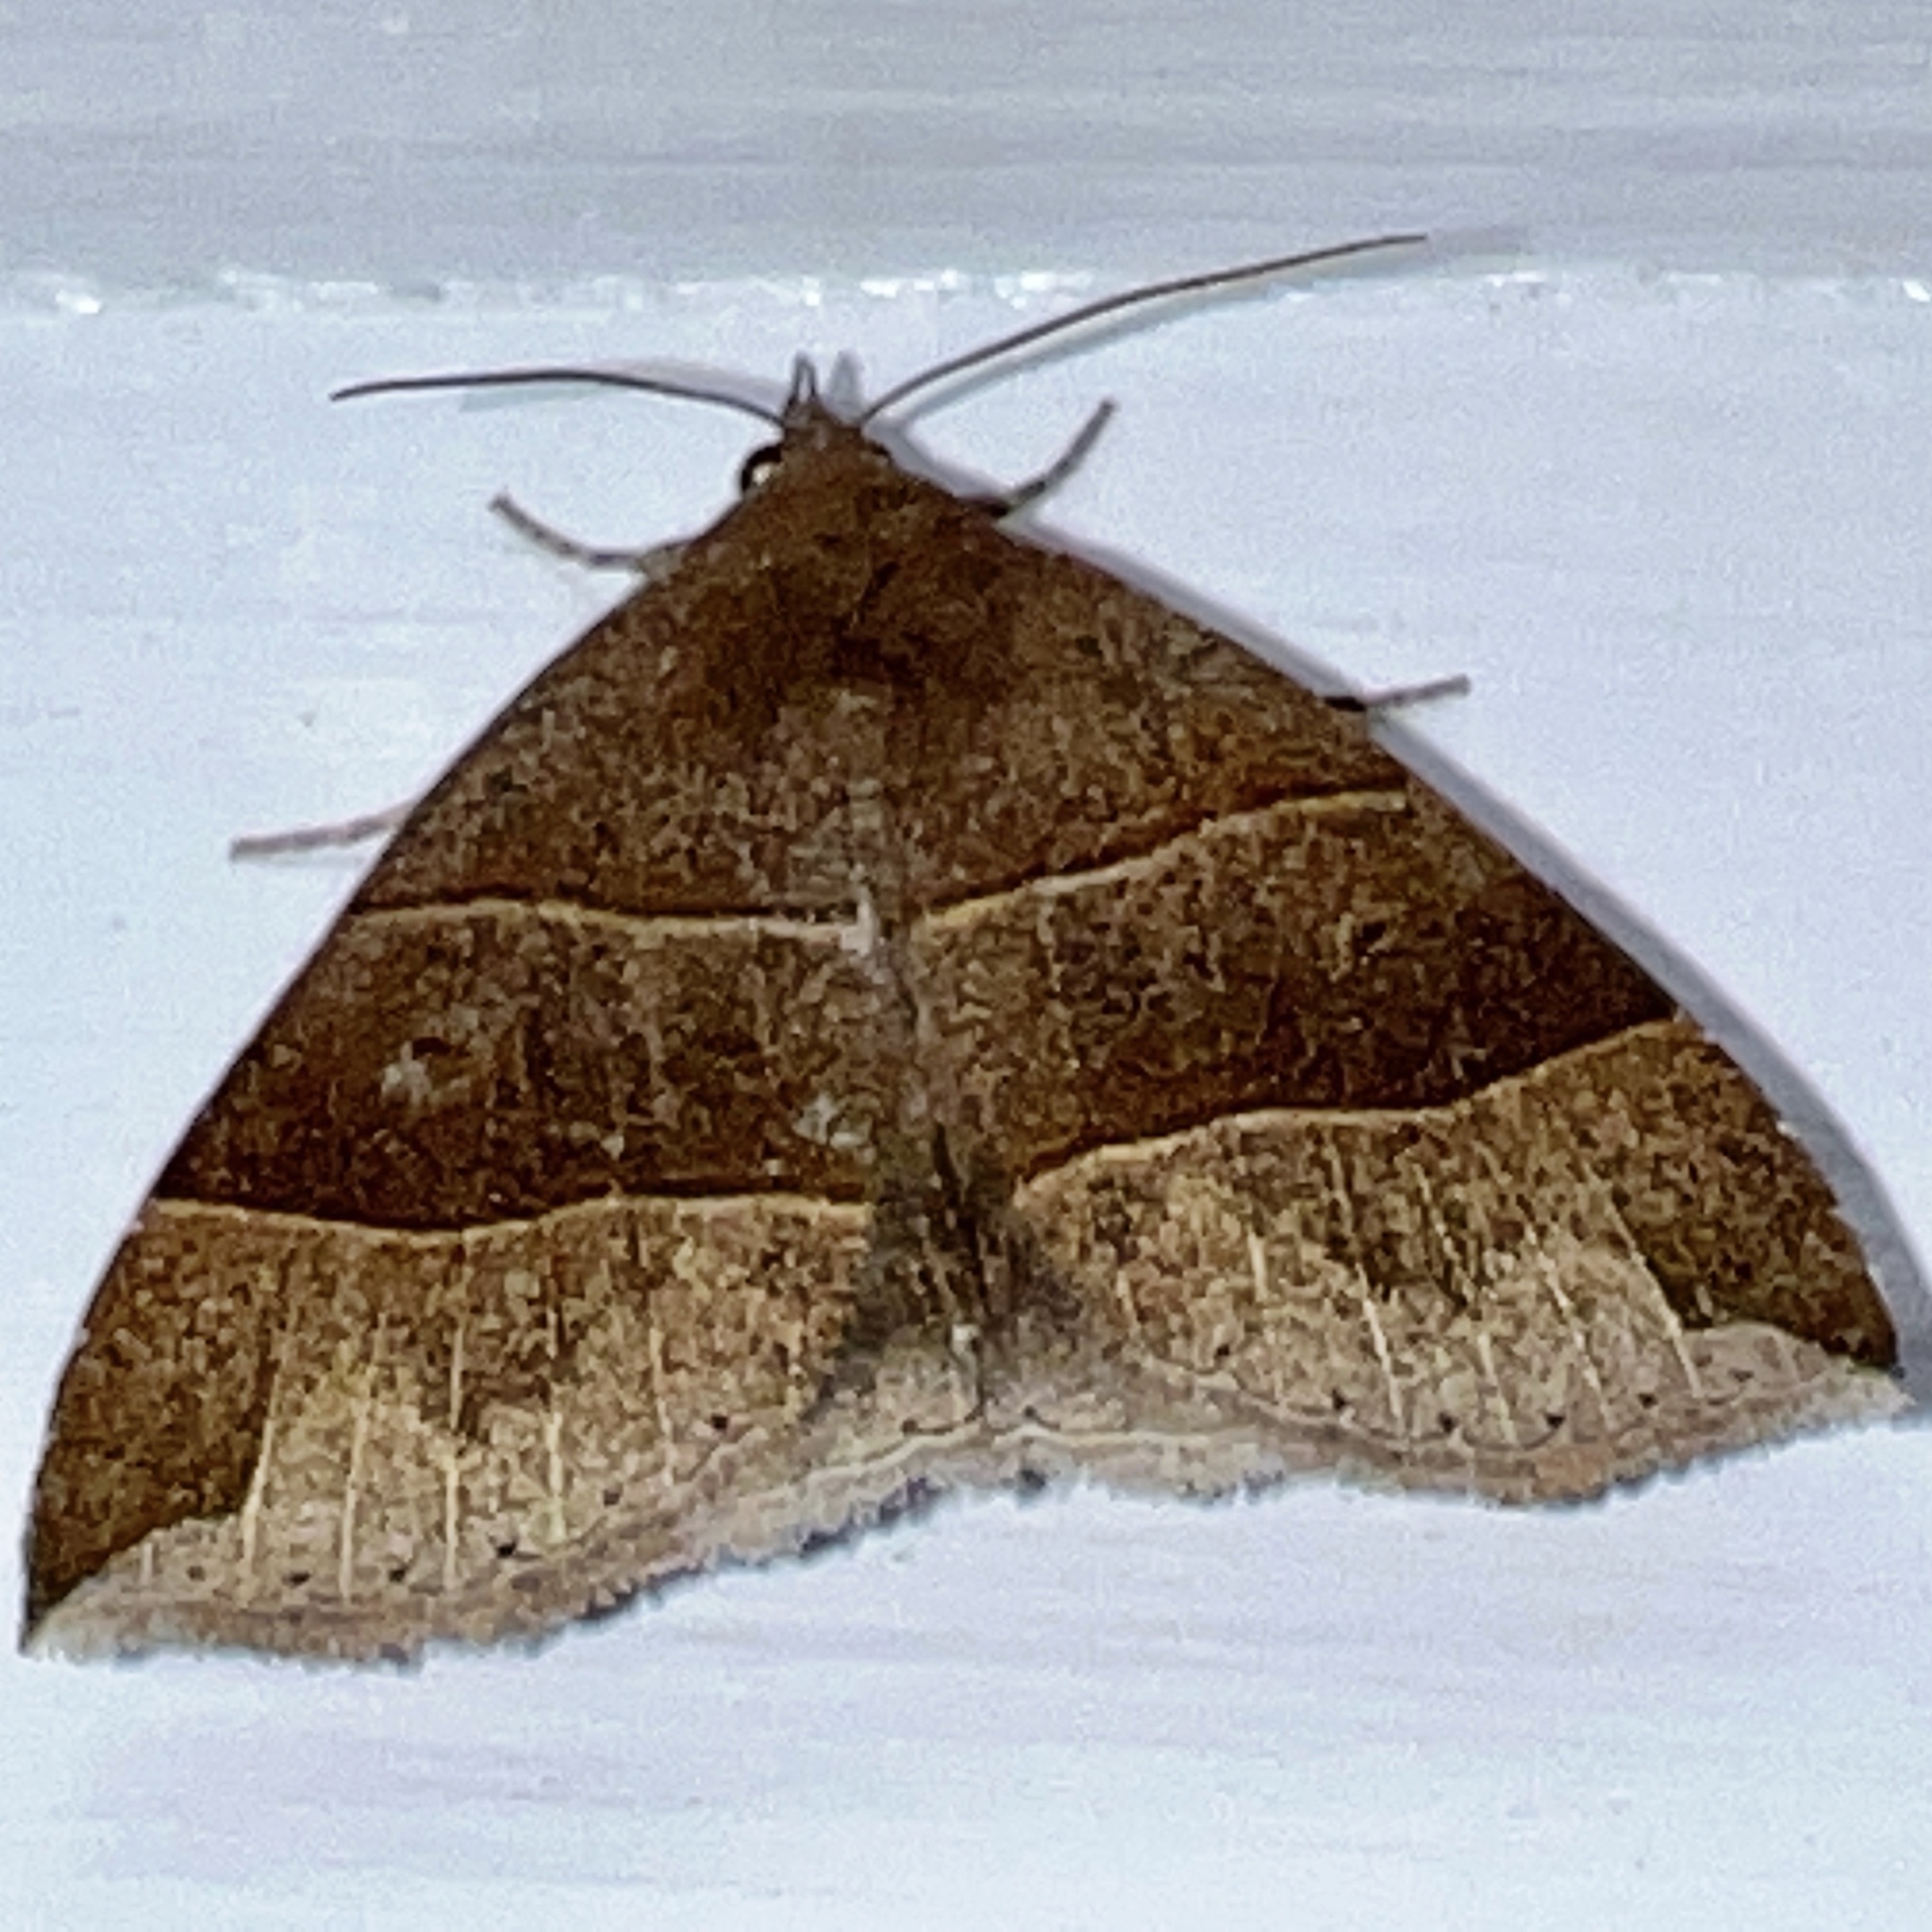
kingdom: Animalia
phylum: Arthropoda
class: Insecta
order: Lepidoptera
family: Erebidae
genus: Parallelia
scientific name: Parallelia bistriaris
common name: Maple looper moth
